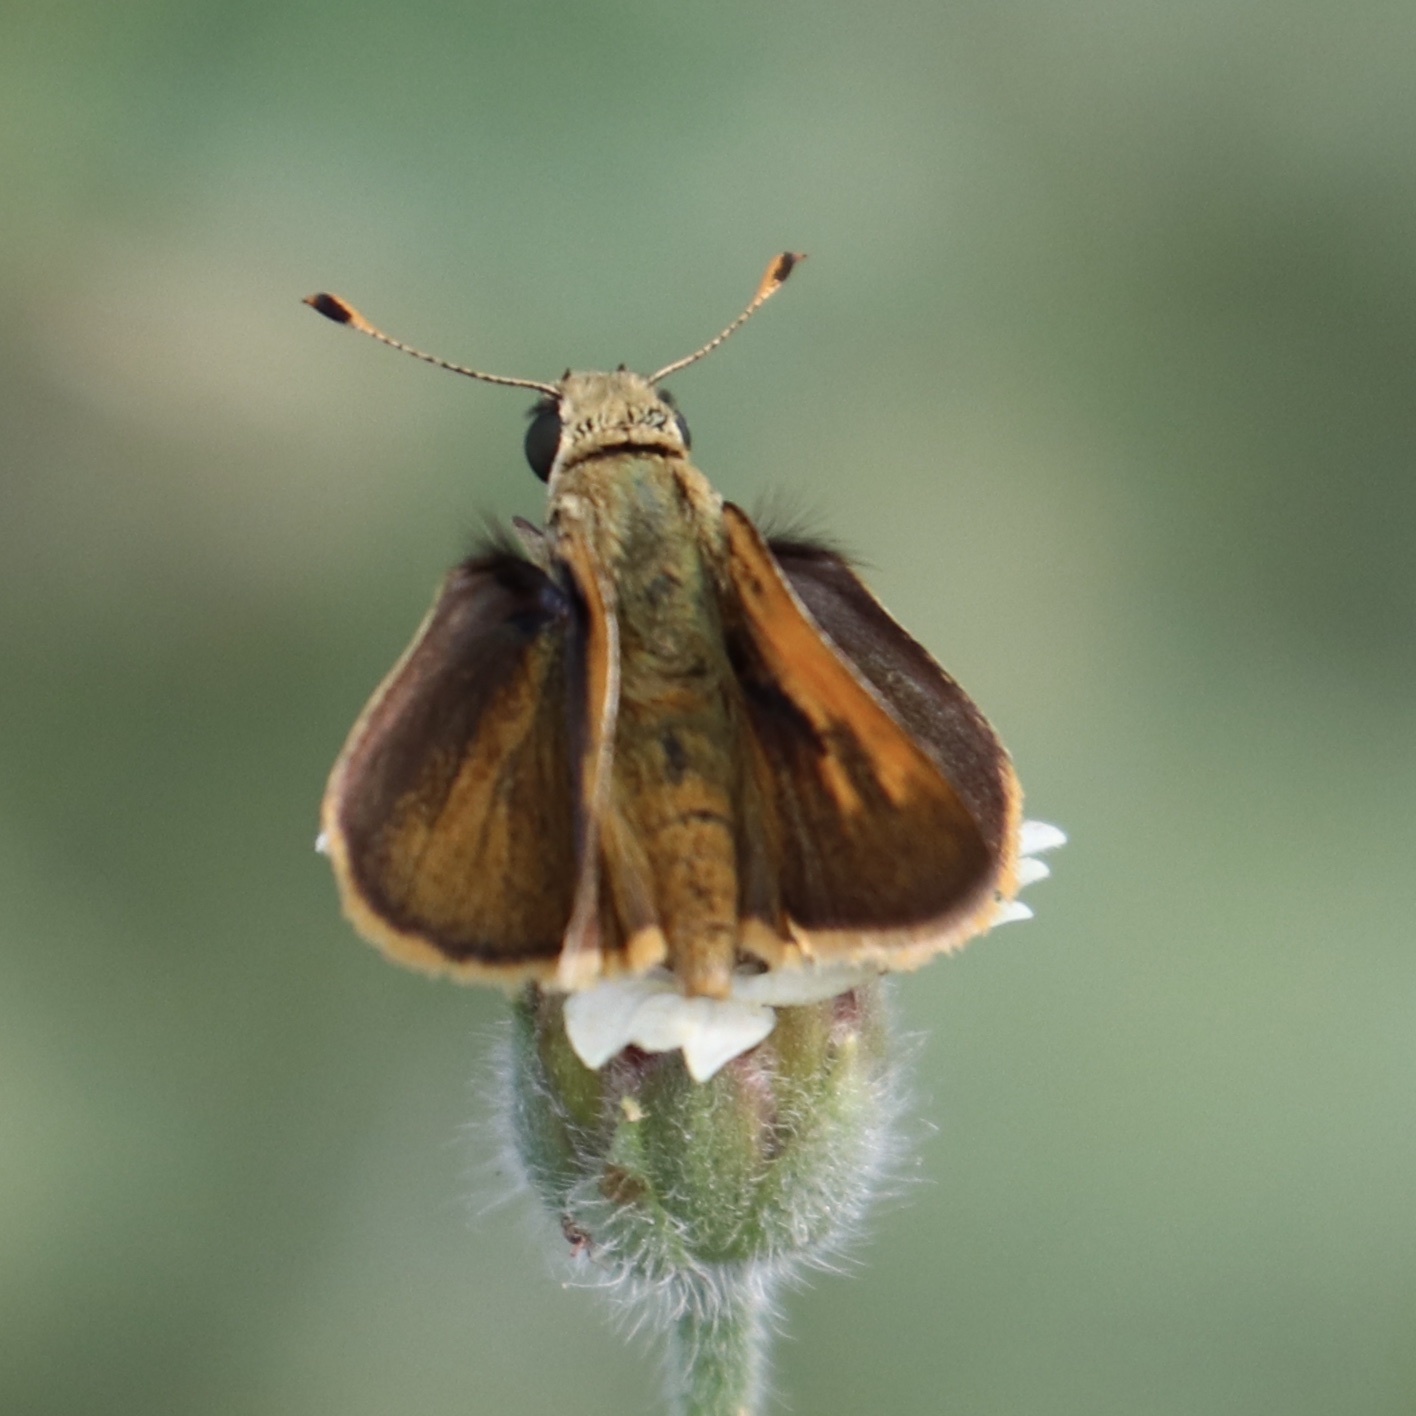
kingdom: Animalia
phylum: Arthropoda
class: Insecta
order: Lepidoptera
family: Hesperiidae
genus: Polites
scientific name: Polites baracoa
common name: Baracoa skipper
